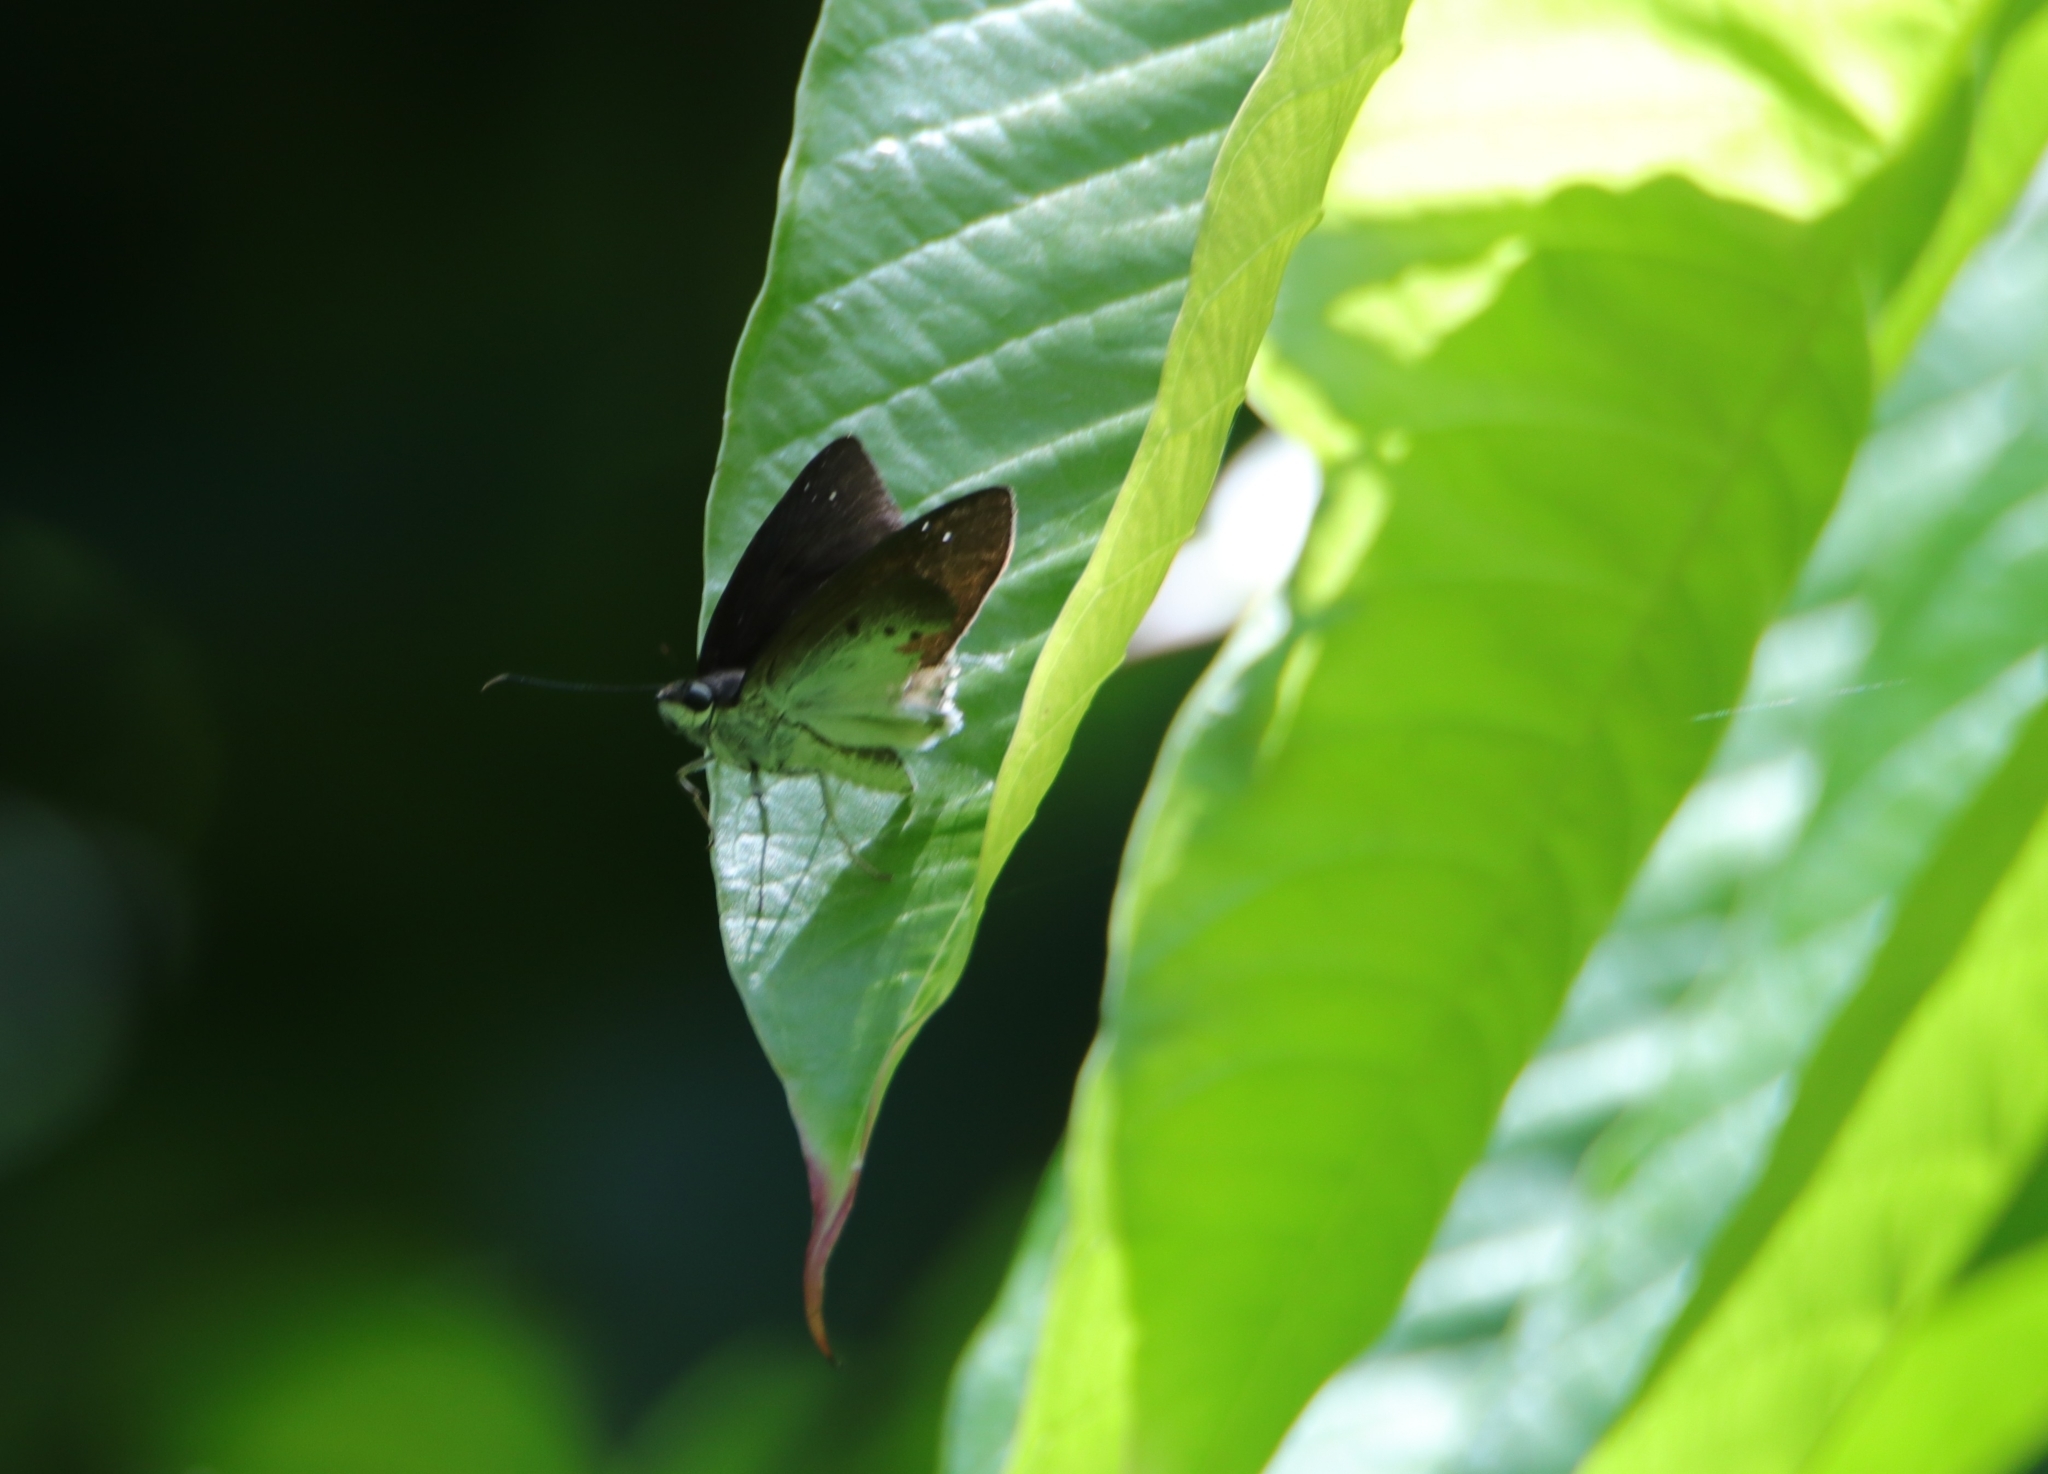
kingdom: Animalia
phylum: Arthropoda
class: Insecta
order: Lepidoptera
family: Hesperiidae
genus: Tagiades
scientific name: Tagiades gana
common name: Suffused snow flat
